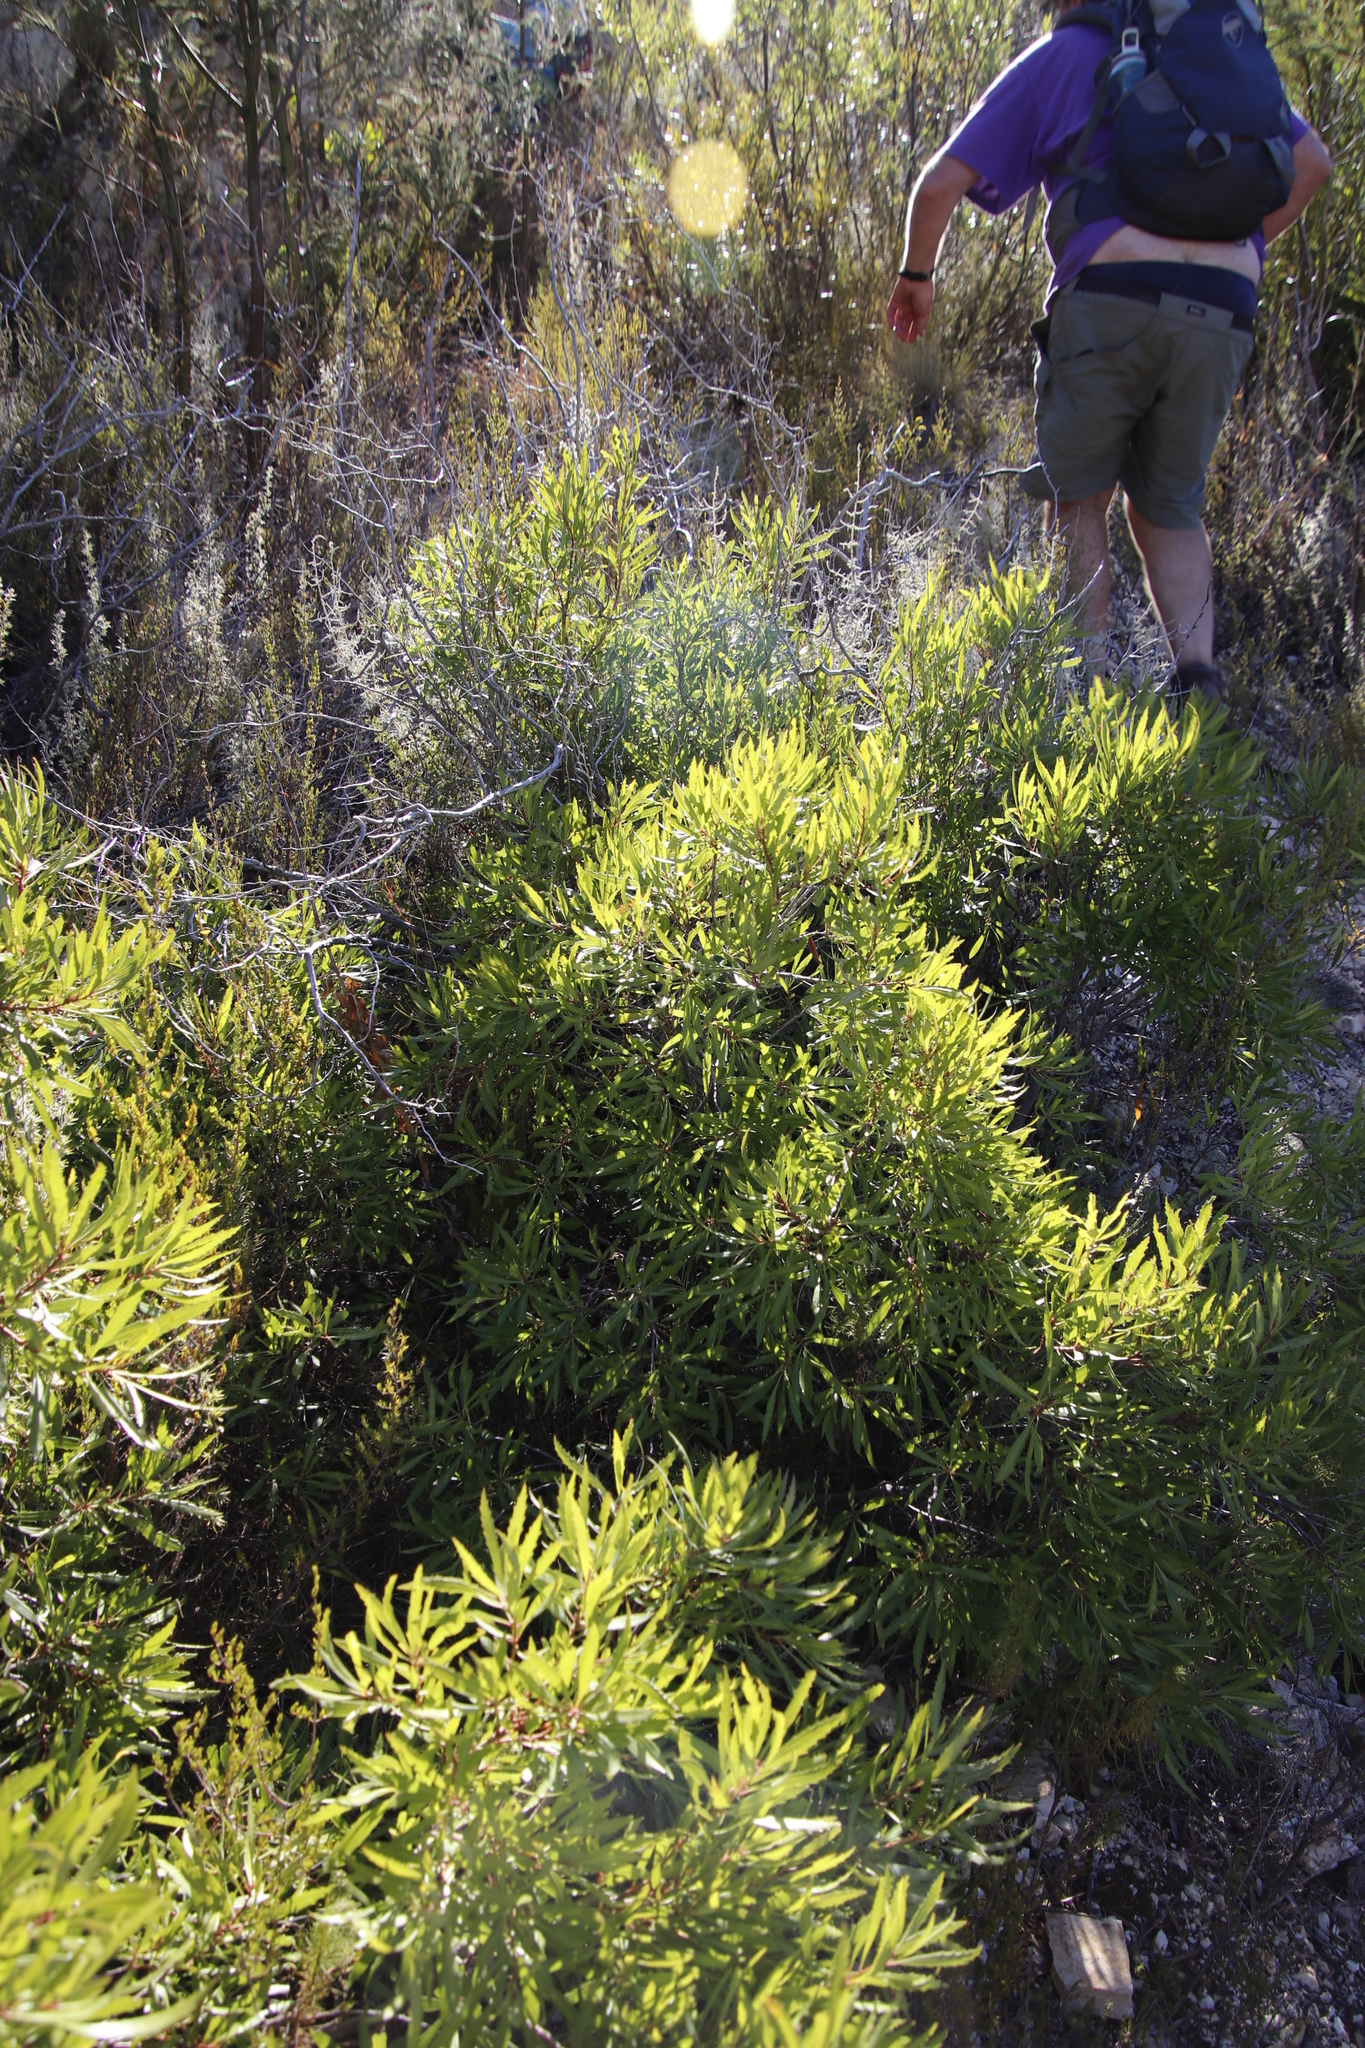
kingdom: Plantae
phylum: Tracheophyta
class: Magnoliopsida
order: Fagales
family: Myricaceae
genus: Morella
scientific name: Morella serrata
